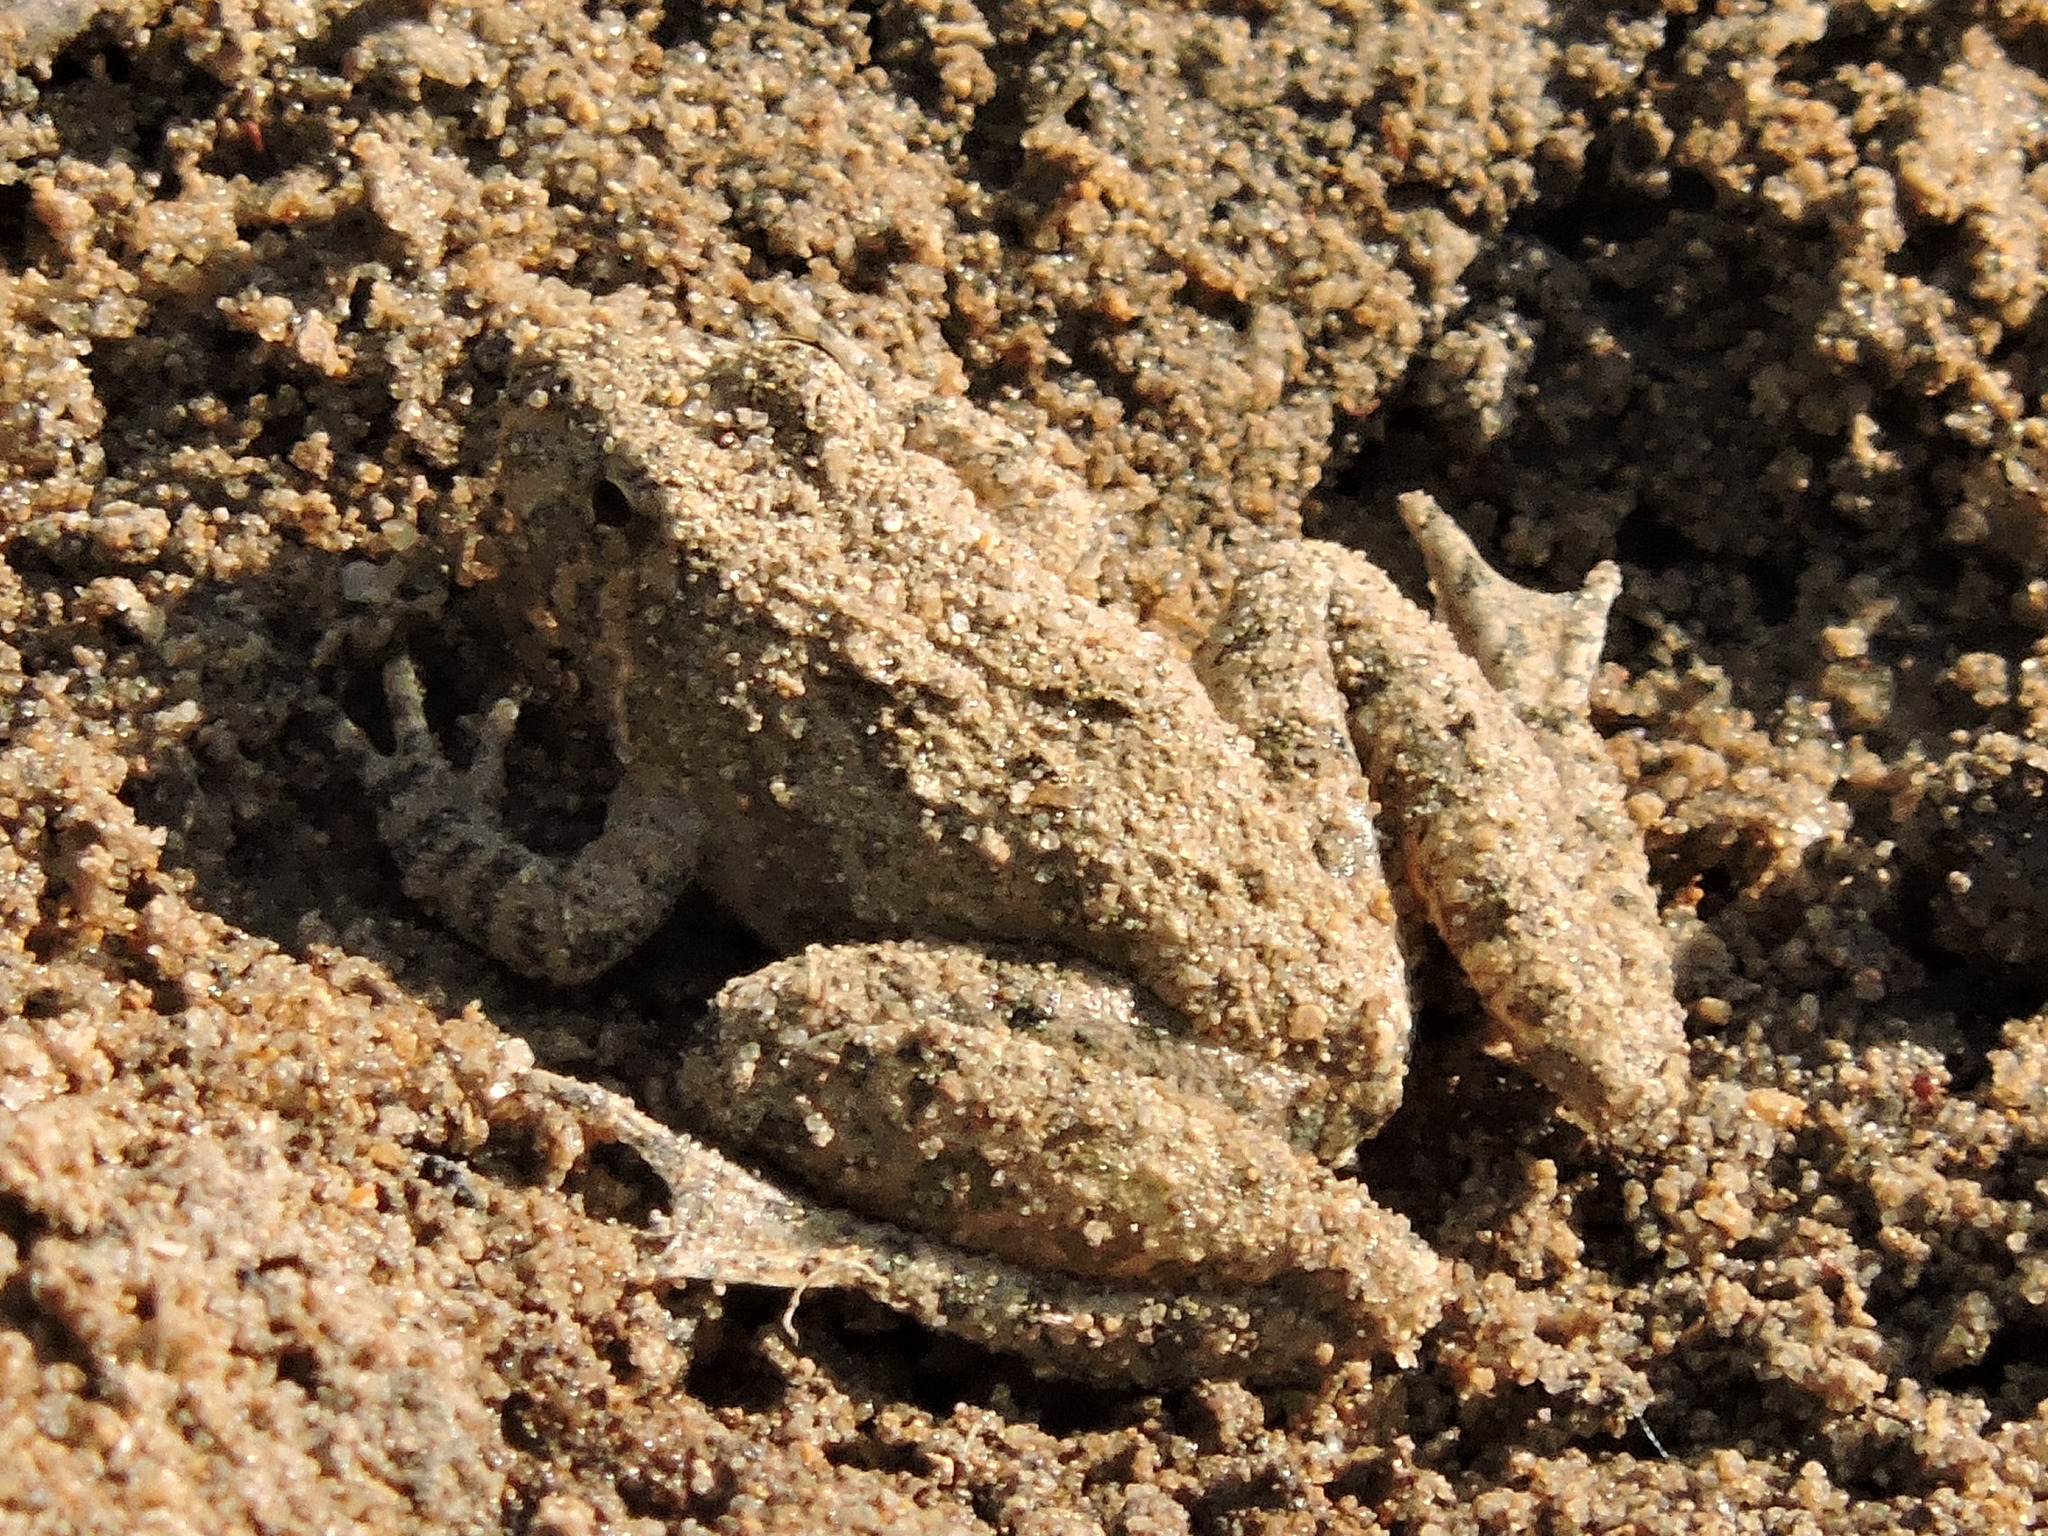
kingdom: Animalia
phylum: Chordata
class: Amphibia
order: Anura
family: Hylidae
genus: Acris
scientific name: Acris blanchardi
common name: Blanchard's cricket frog
